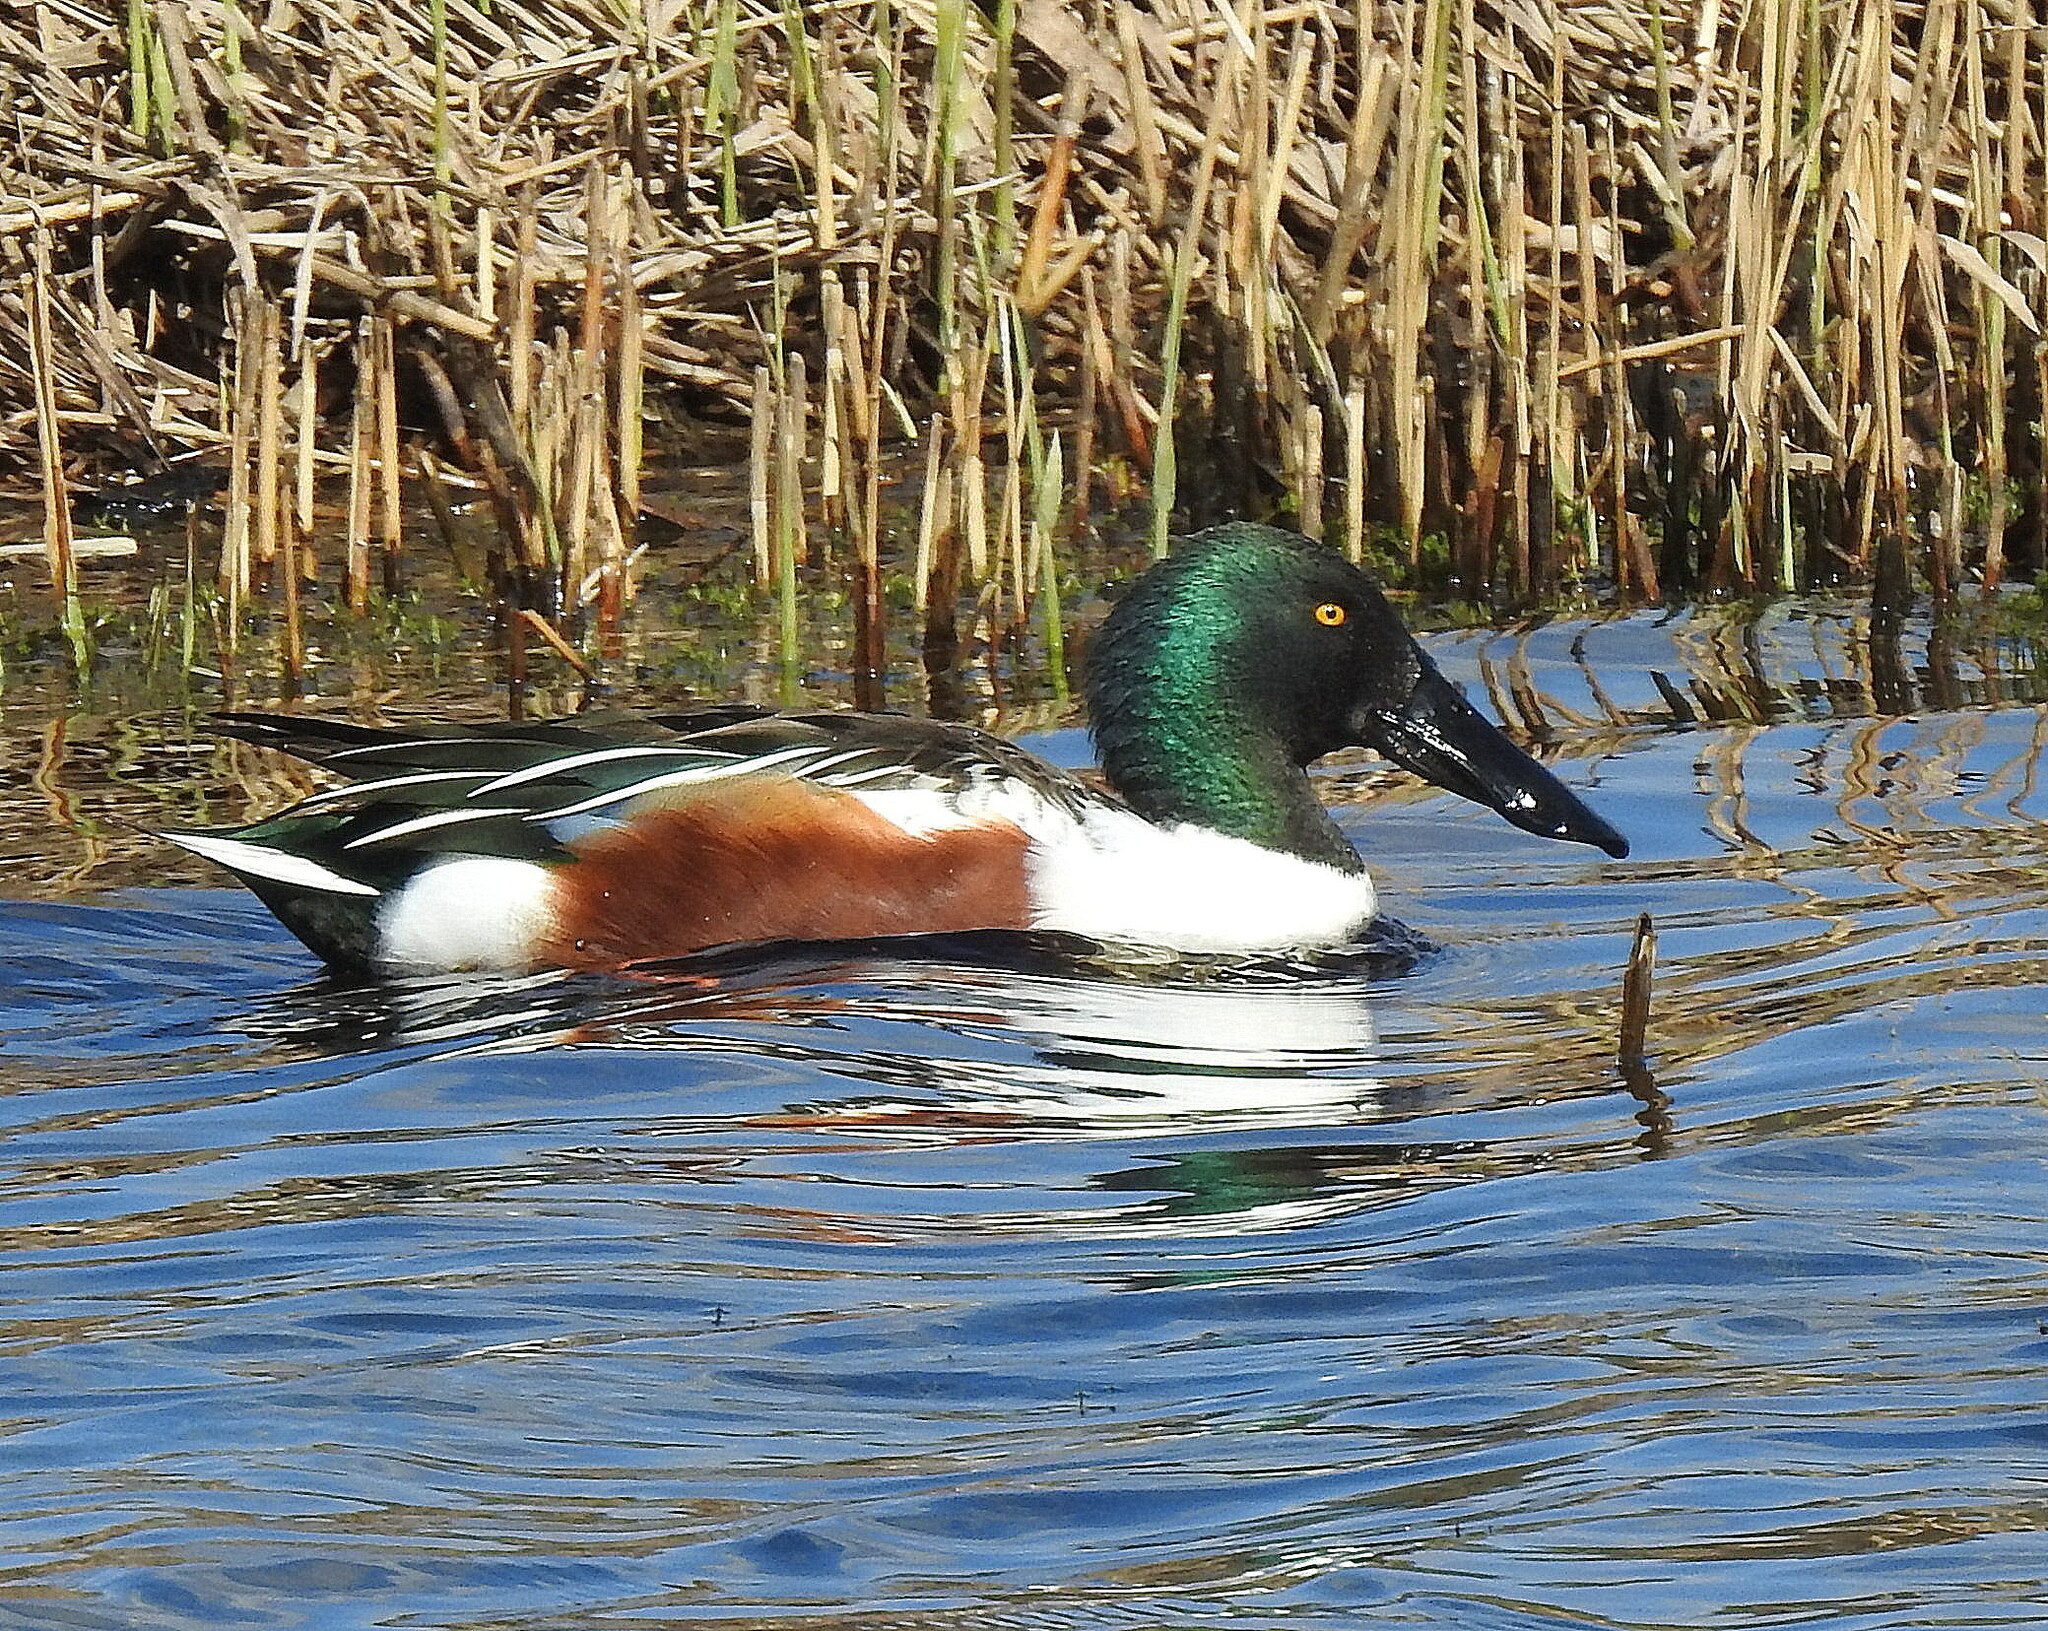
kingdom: Animalia
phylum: Chordata
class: Aves
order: Anseriformes
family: Anatidae
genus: Spatula
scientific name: Spatula clypeata
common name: Northern shoveler
